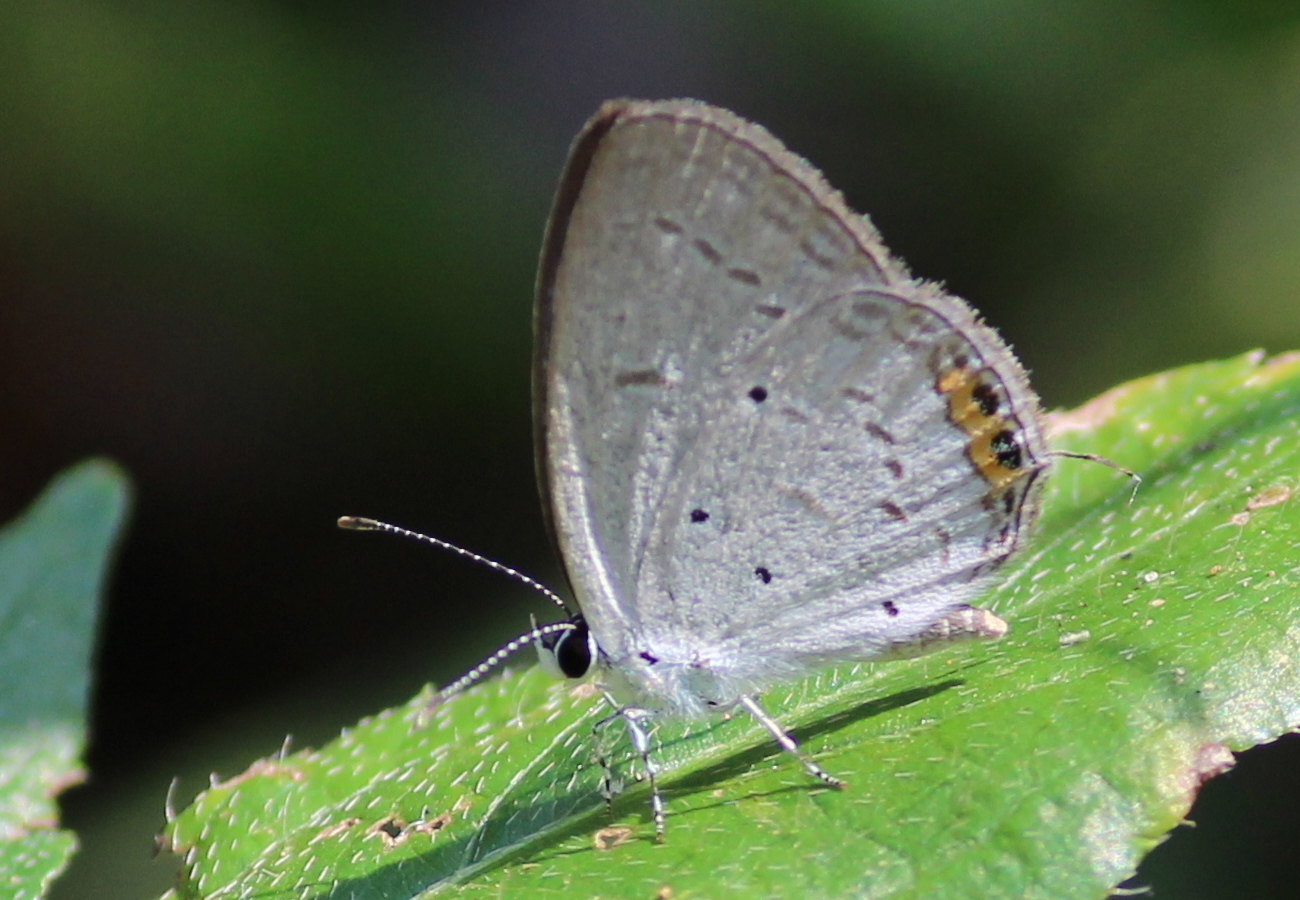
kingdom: Animalia
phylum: Arthropoda
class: Insecta
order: Lepidoptera
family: Lycaenidae
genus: Everes
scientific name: Everes lacturnus
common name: Orange-tipped pea-blue
